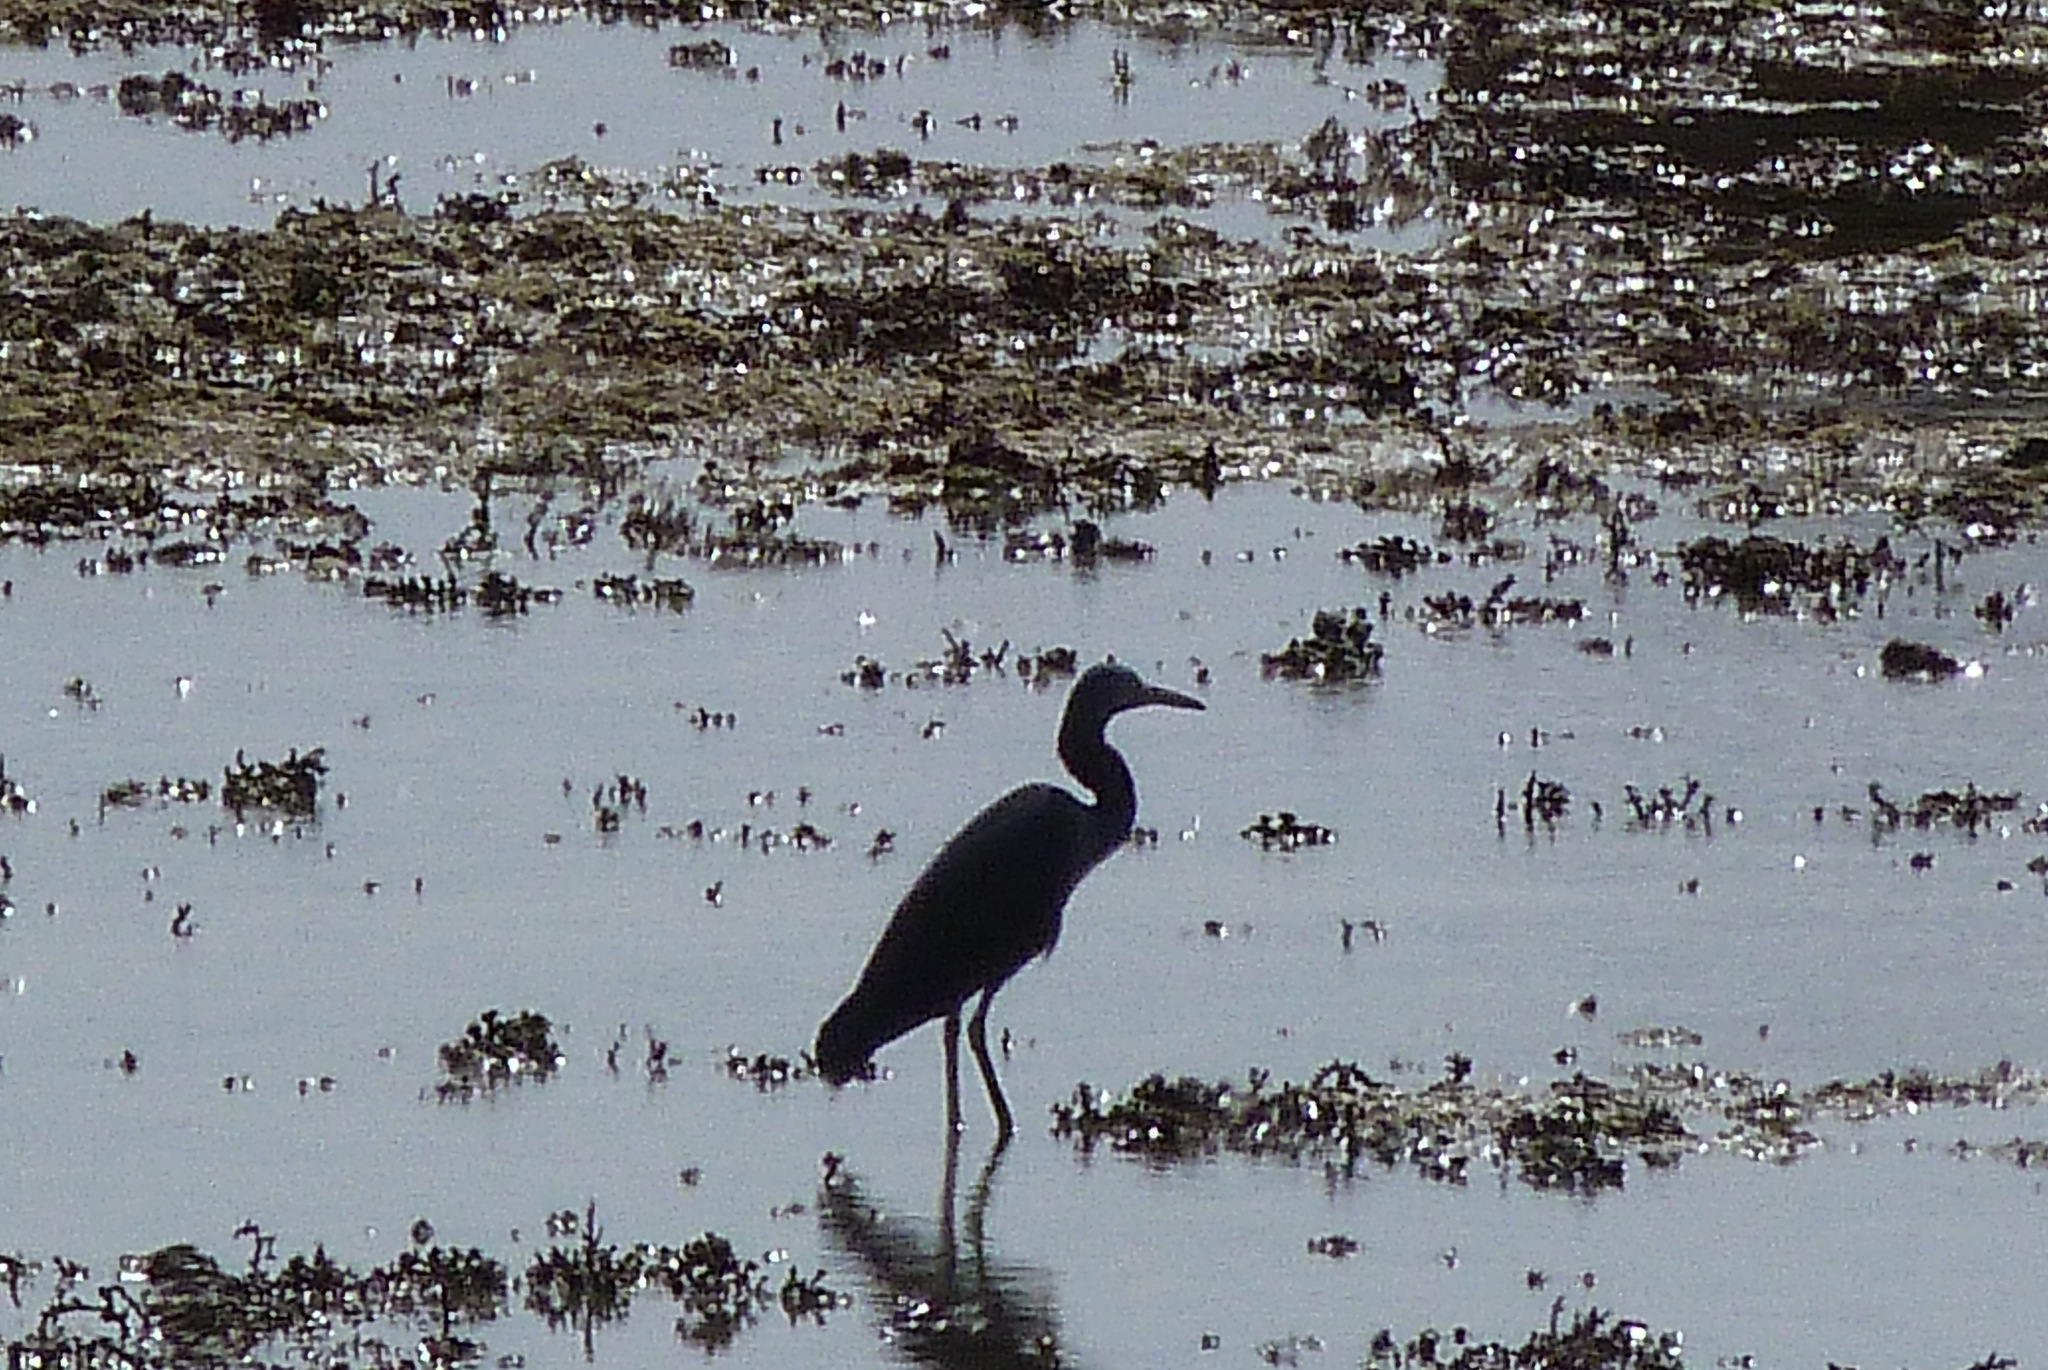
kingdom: Animalia
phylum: Chordata
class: Aves
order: Pelecaniformes
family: Ardeidae
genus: Egretta
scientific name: Egretta sacra
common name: Pacific reef heron
